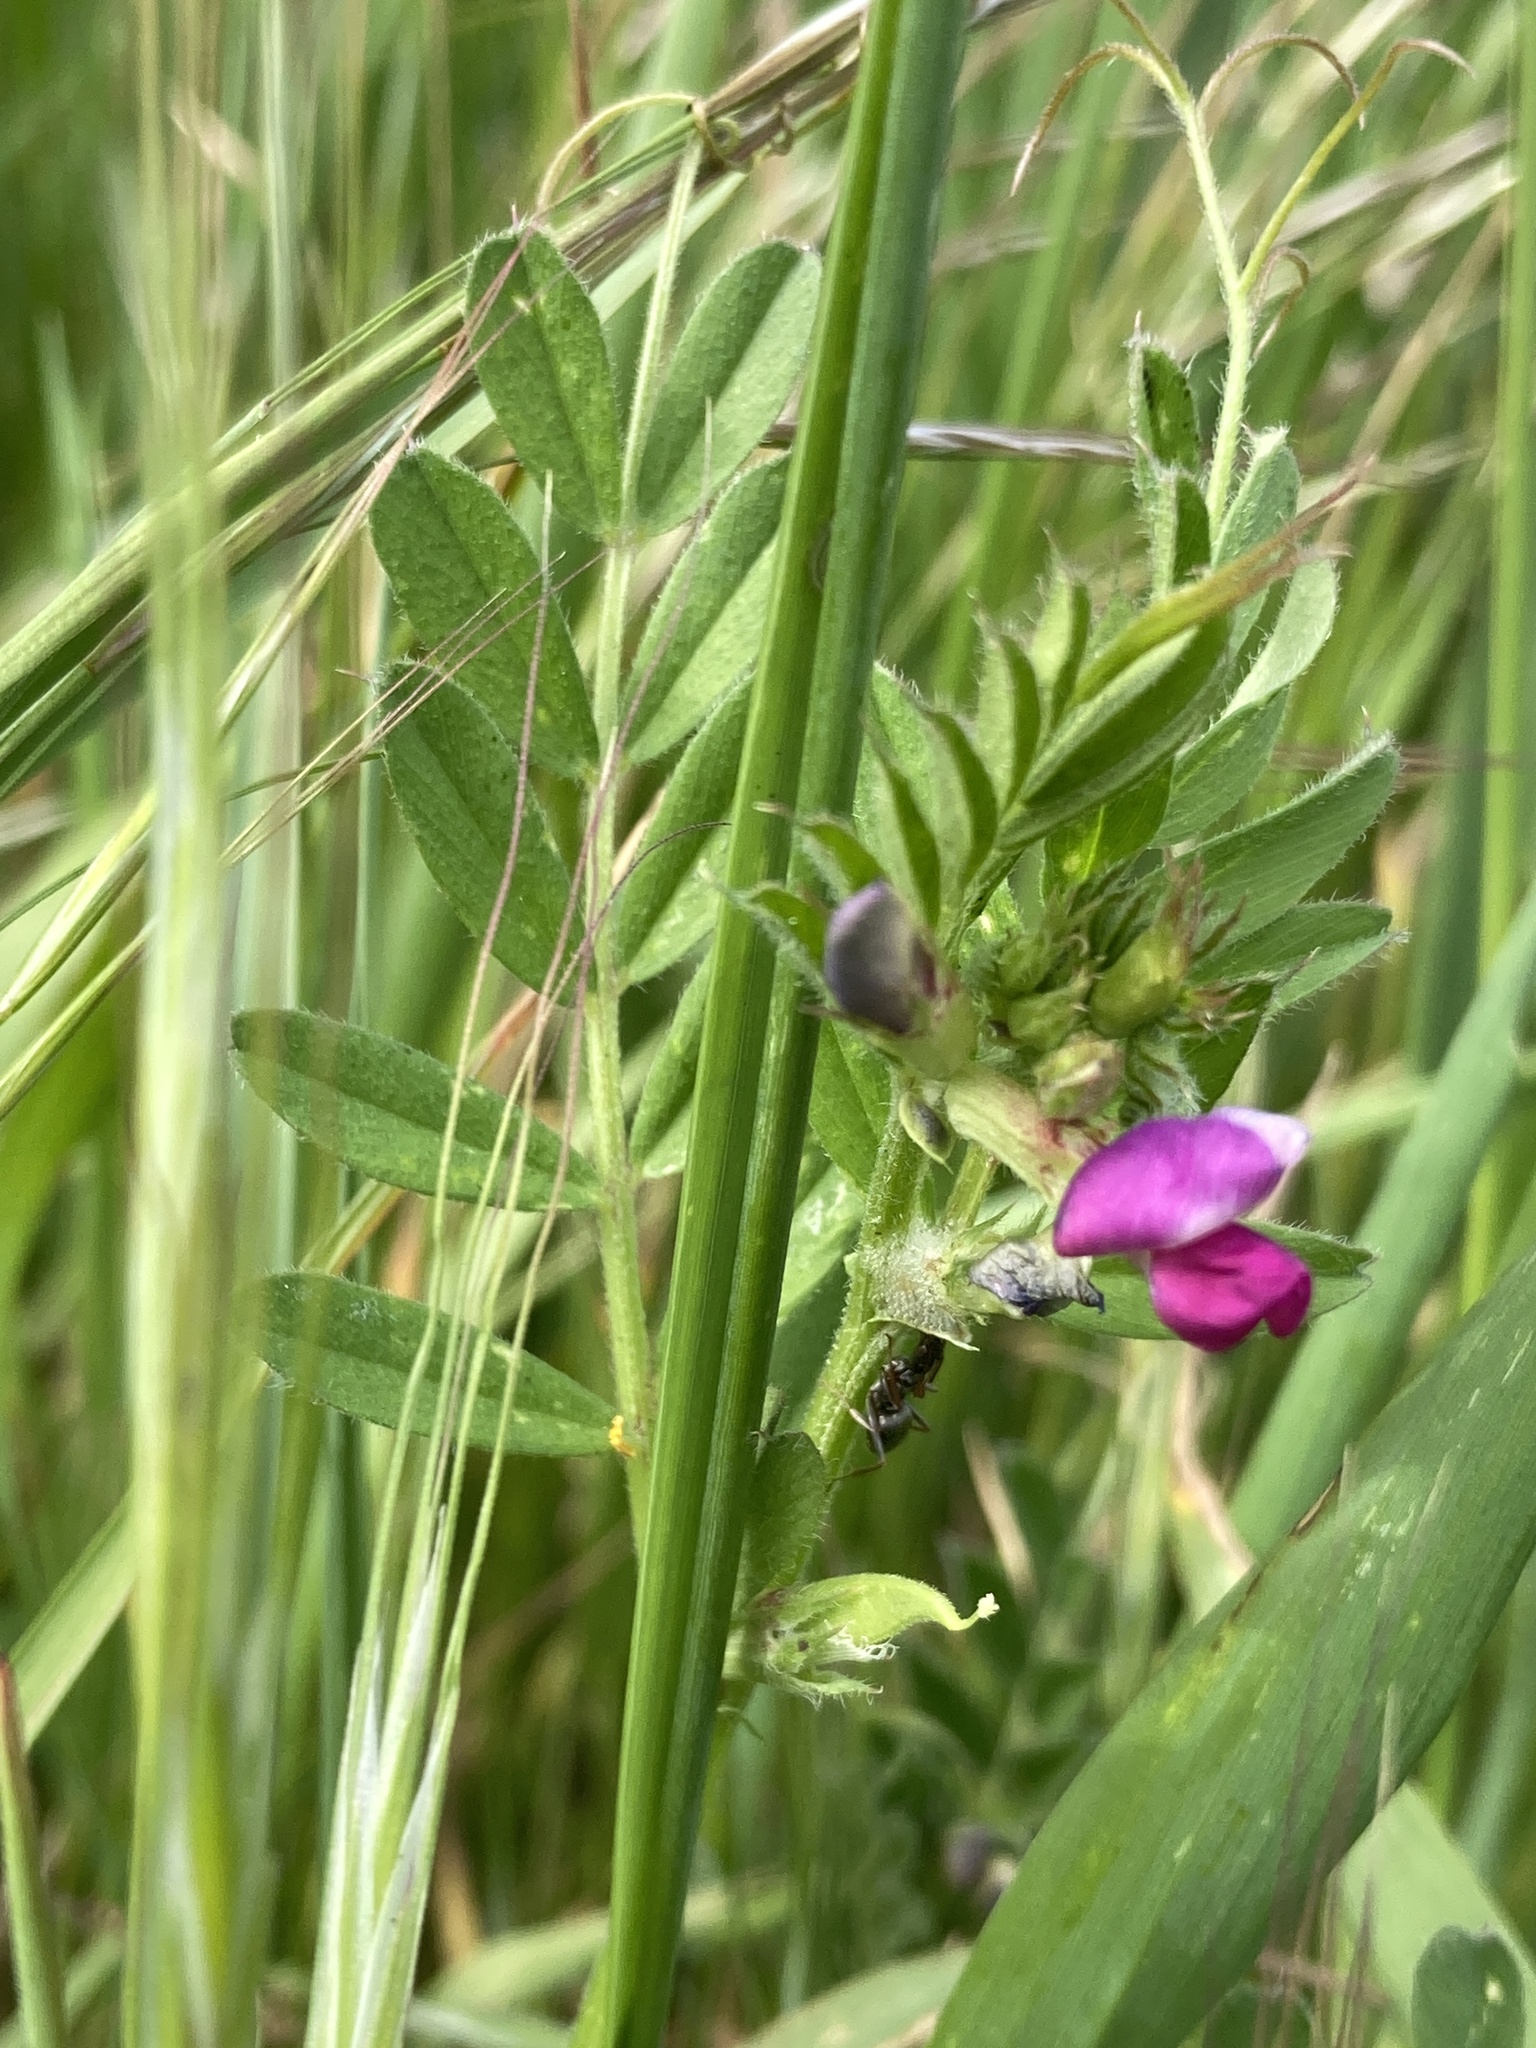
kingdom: Plantae
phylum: Tracheophyta
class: Magnoliopsida
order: Fabales
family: Fabaceae
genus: Vicia
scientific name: Vicia sativa
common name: Garden vetch
